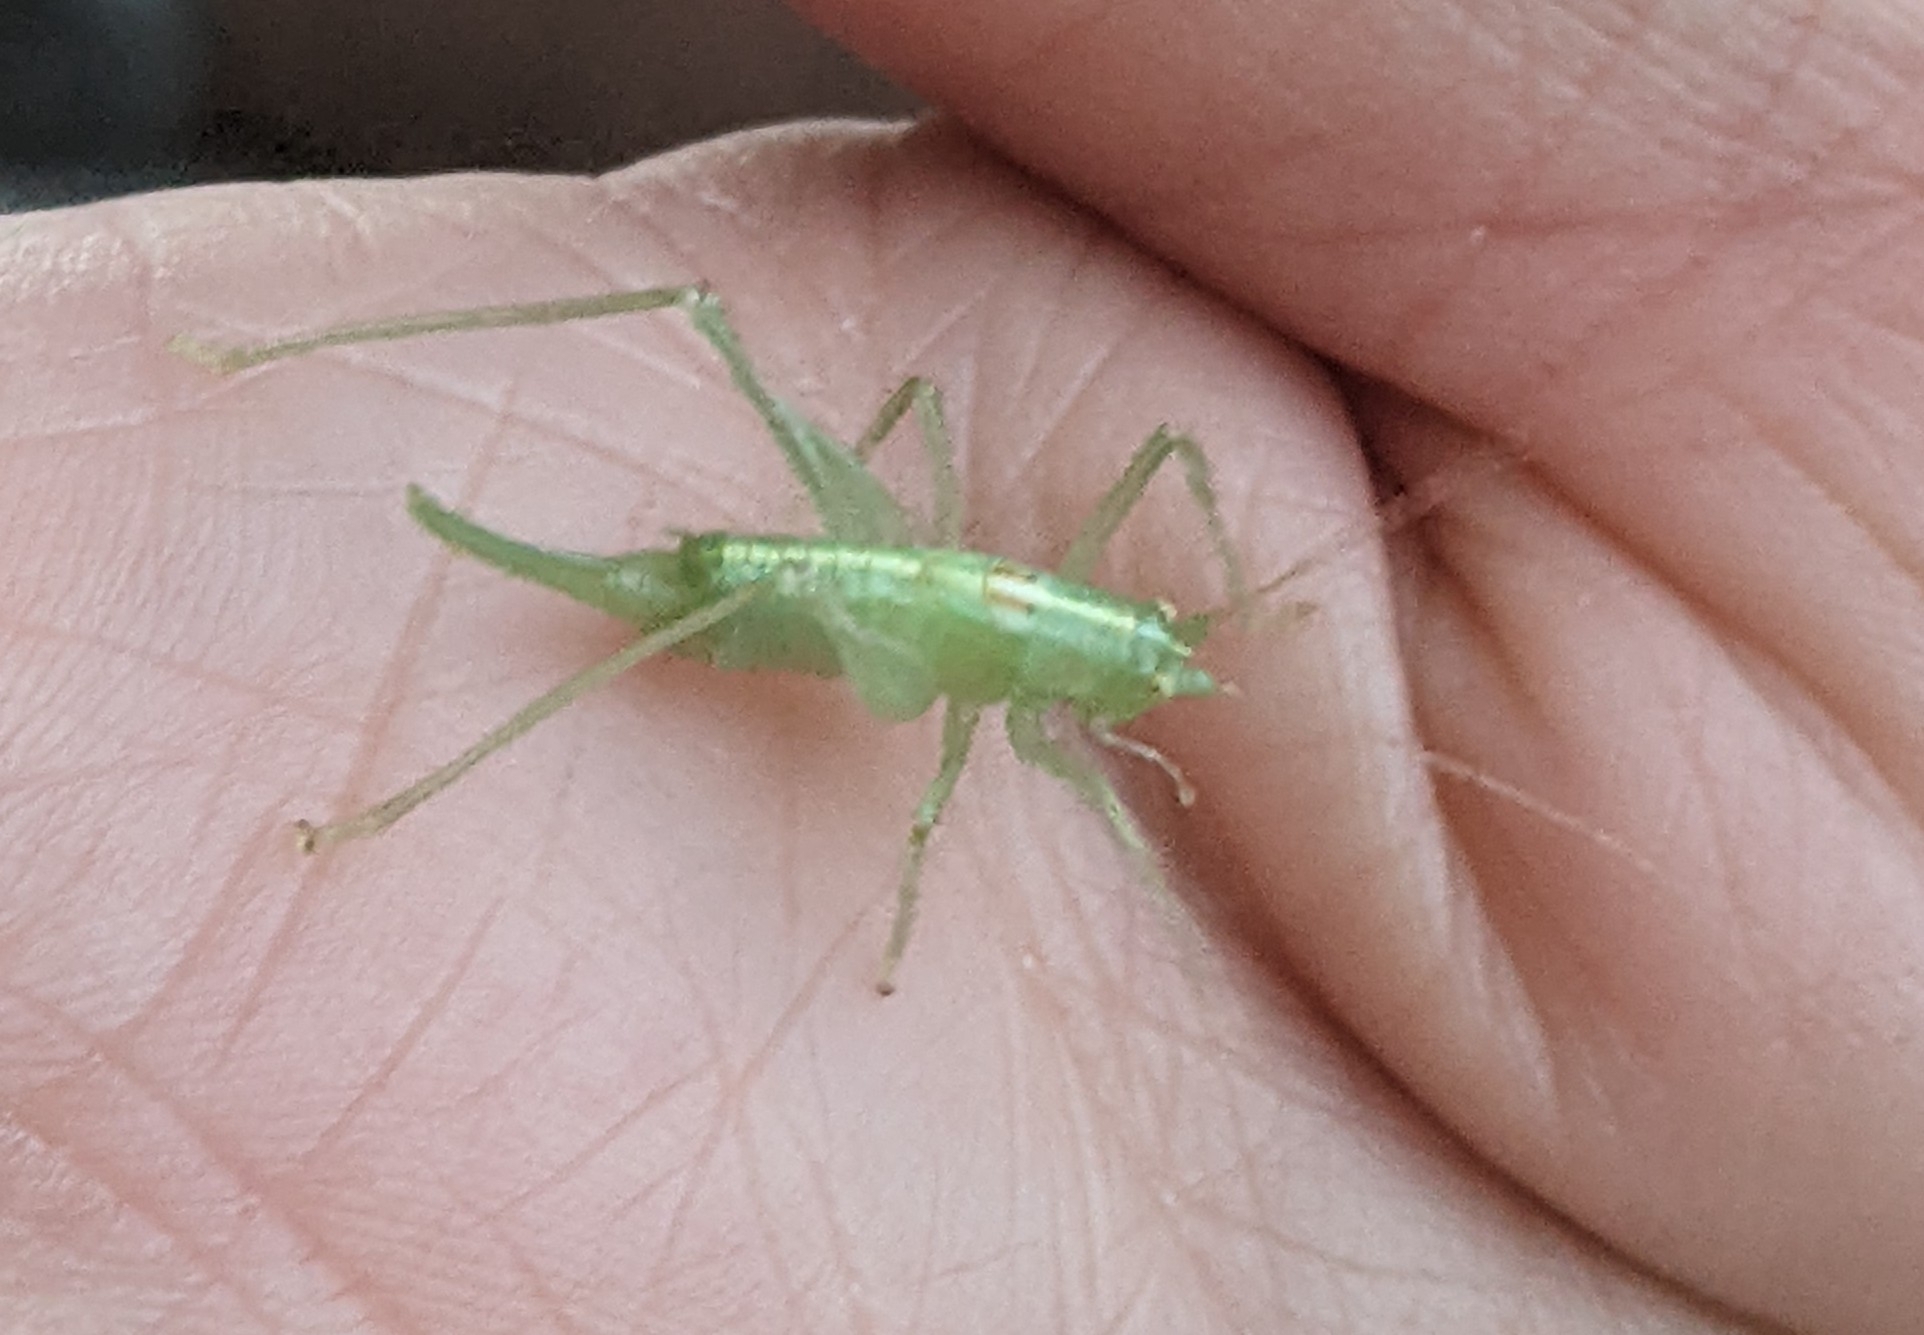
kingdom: Animalia
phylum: Arthropoda
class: Insecta
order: Orthoptera
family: Tettigoniidae
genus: Meconema
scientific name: Meconema meridionale
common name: Southern oak bush-cricket
